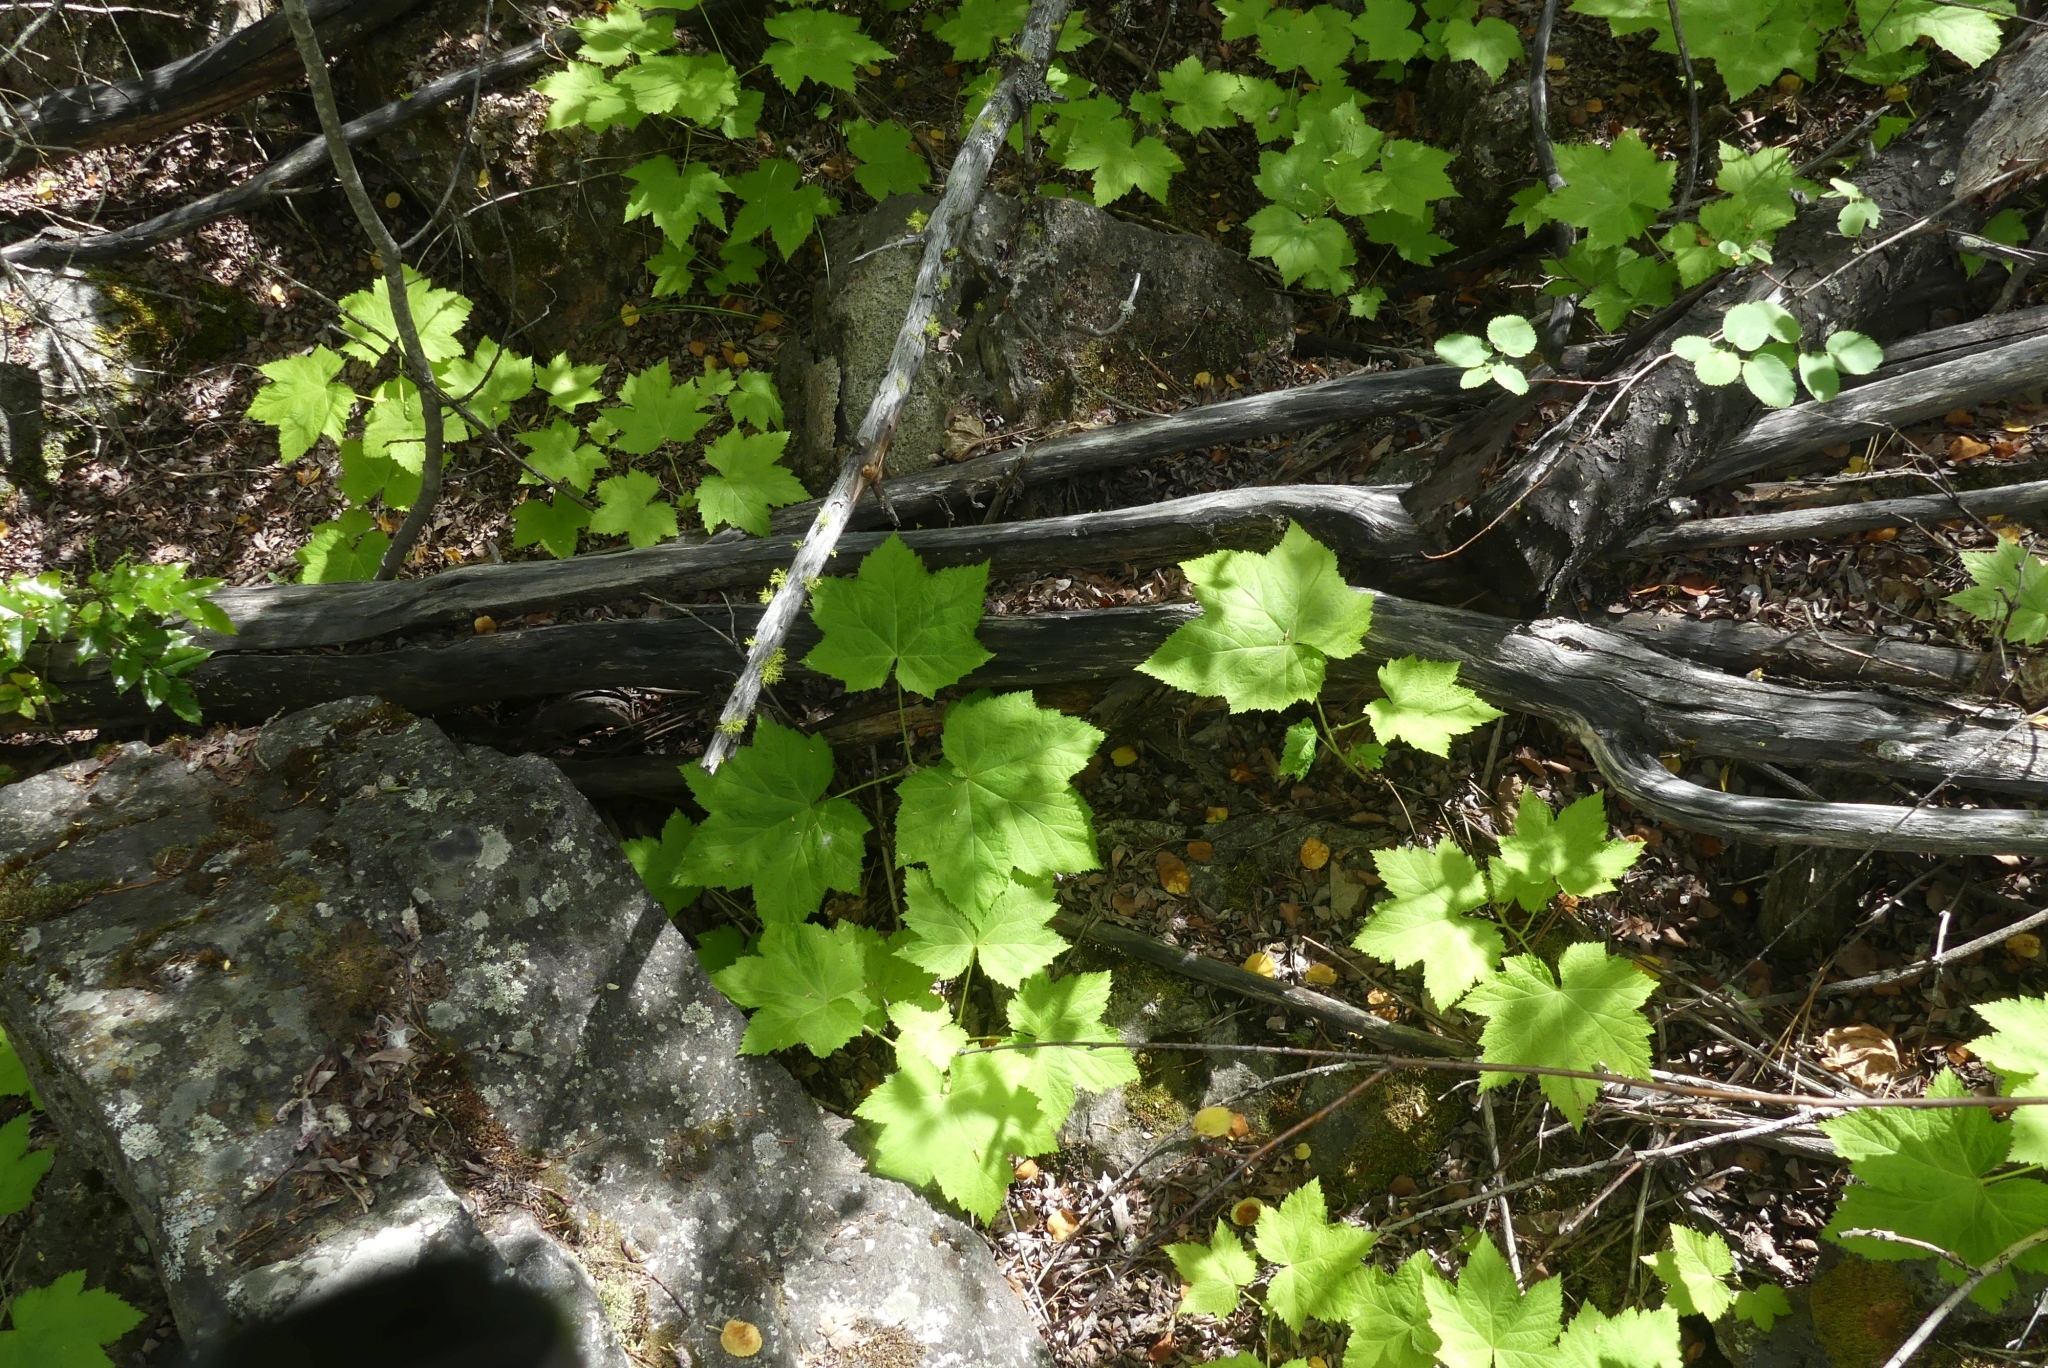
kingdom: Plantae
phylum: Tracheophyta
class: Magnoliopsida
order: Rosales
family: Rosaceae
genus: Rubus
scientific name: Rubus parviflorus
